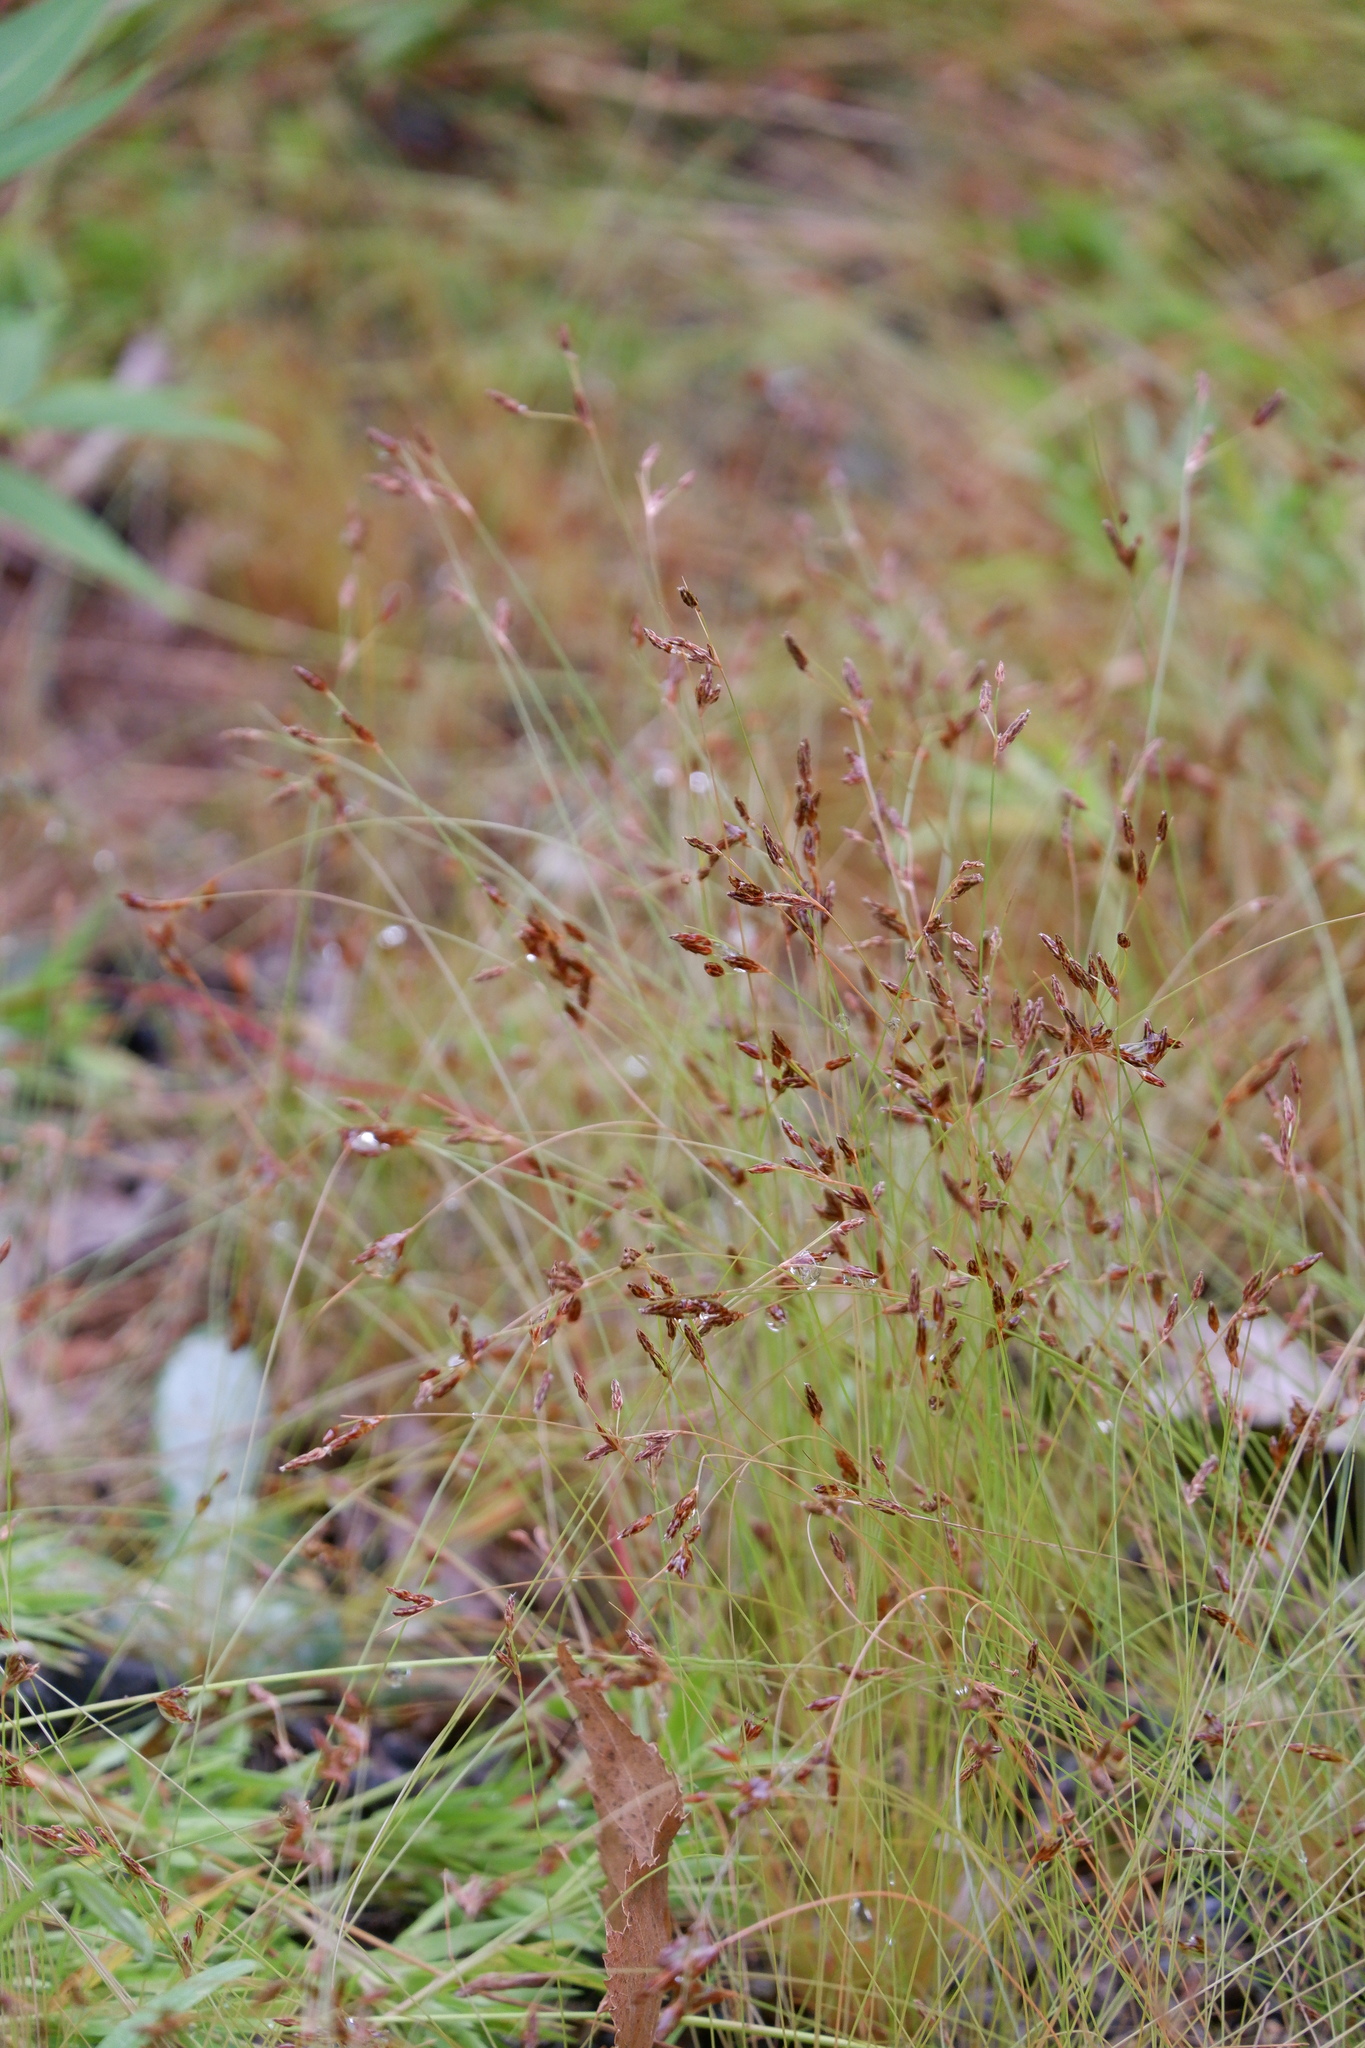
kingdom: Plantae
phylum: Tracheophyta
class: Liliopsida
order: Poales
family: Cyperaceae
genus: Bulbostylis
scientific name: Bulbostylis capillaris
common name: Densetuft hairsedge
